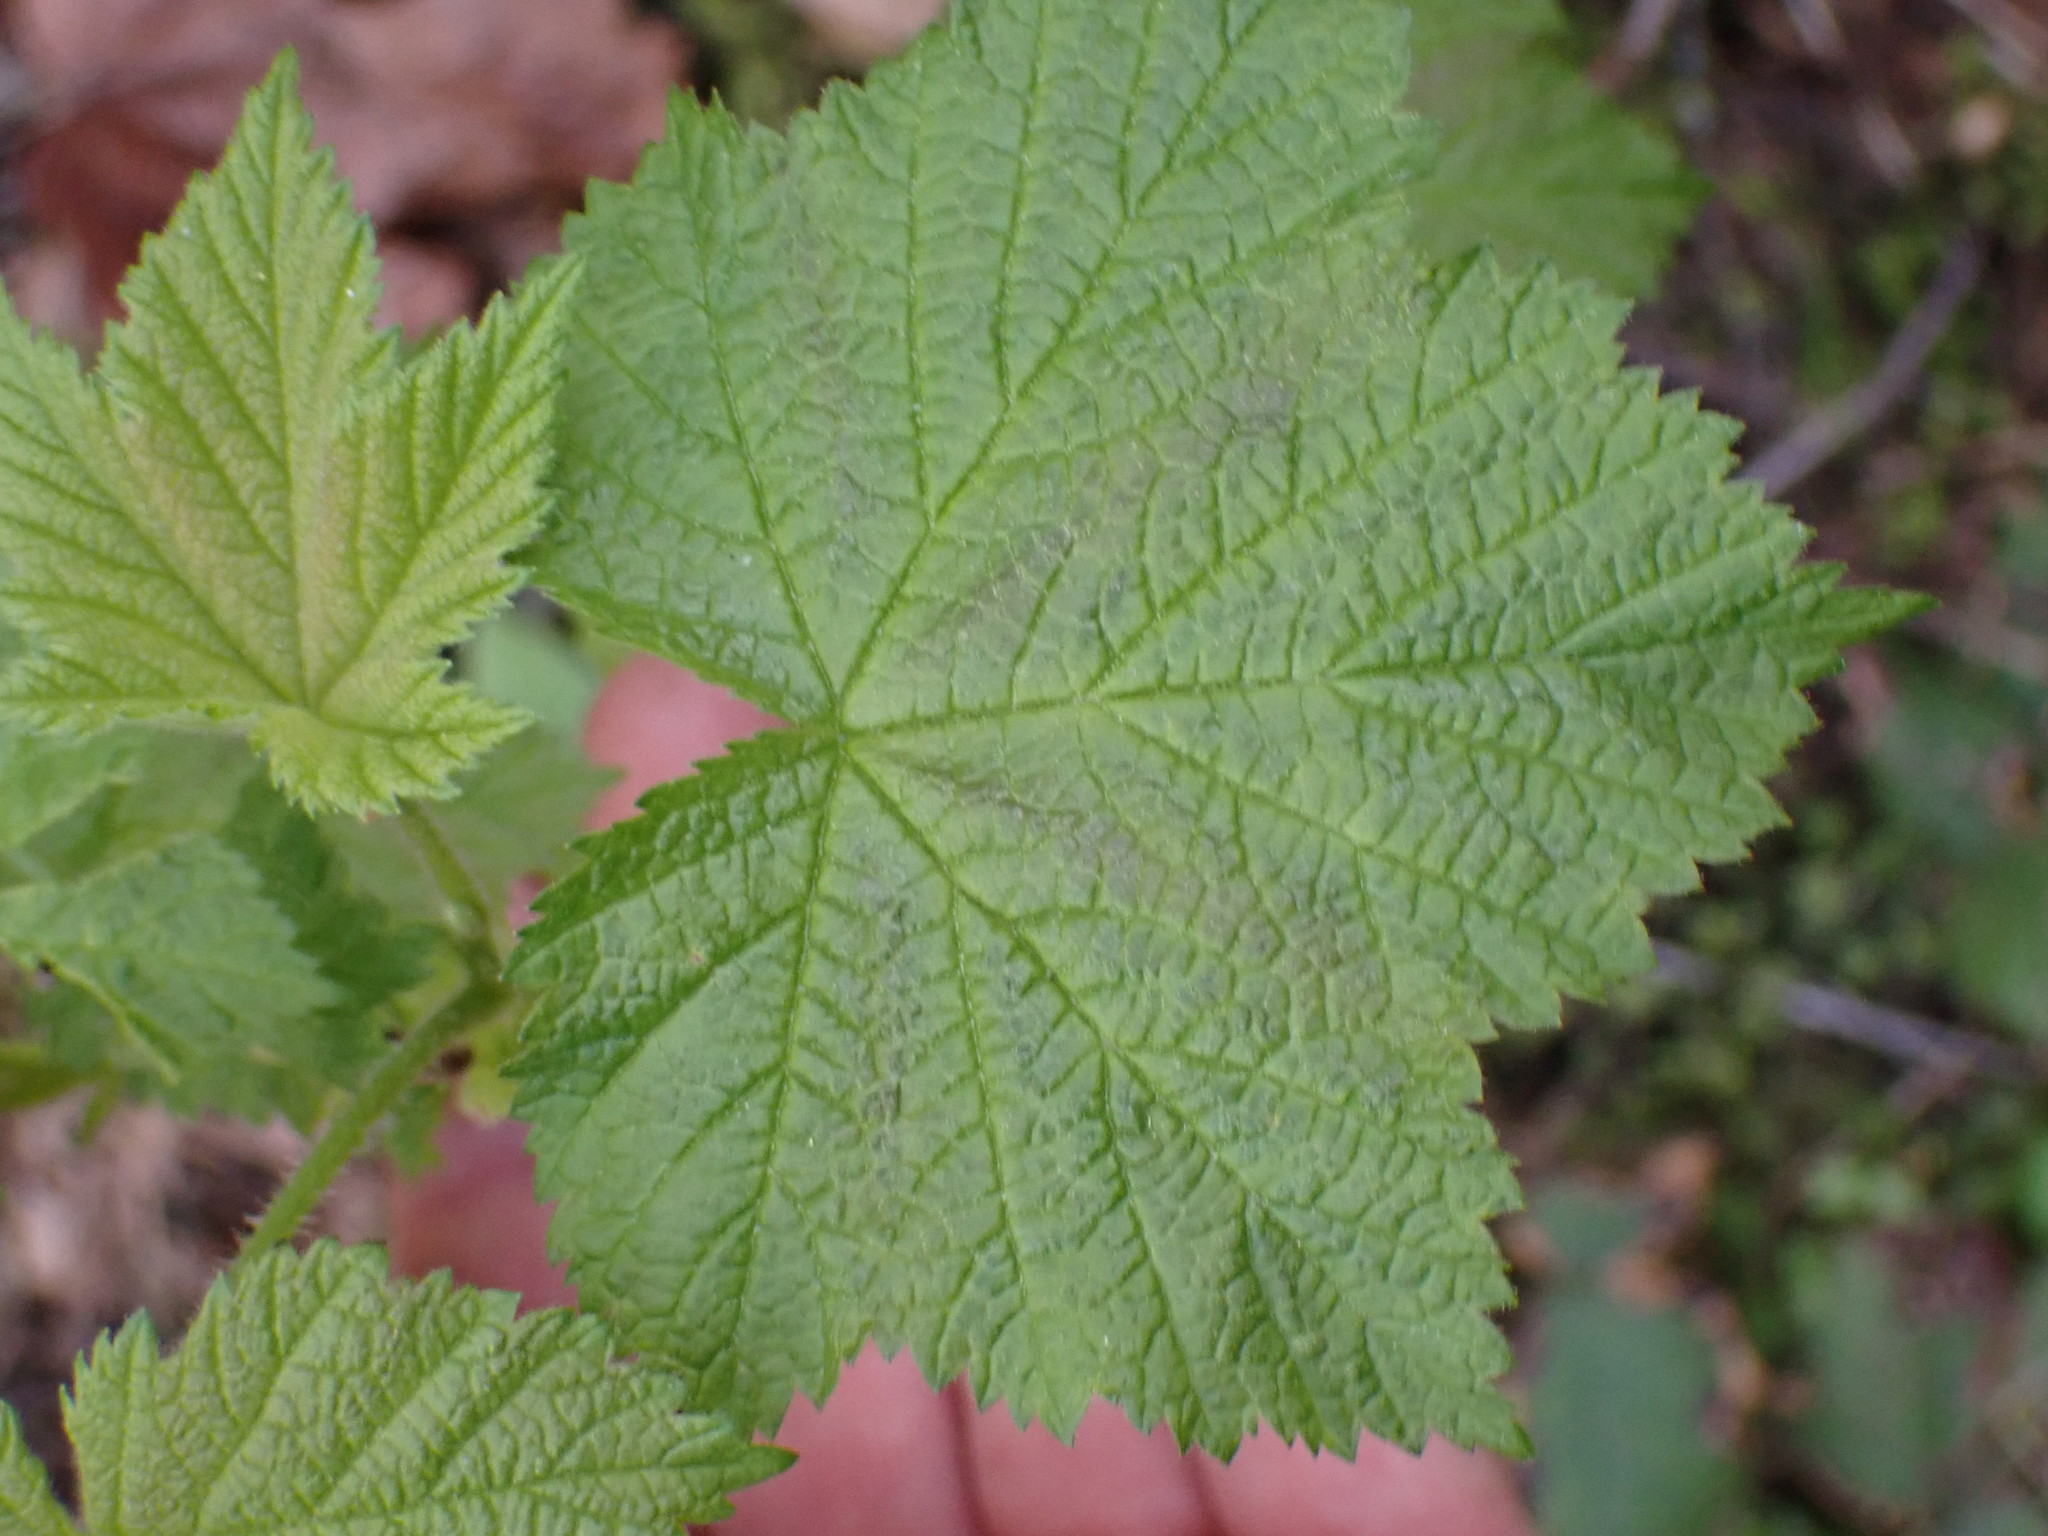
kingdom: Plantae
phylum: Tracheophyta
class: Magnoliopsida
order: Rosales
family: Rosaceae
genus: Rubus
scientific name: Rubus parviflorus
